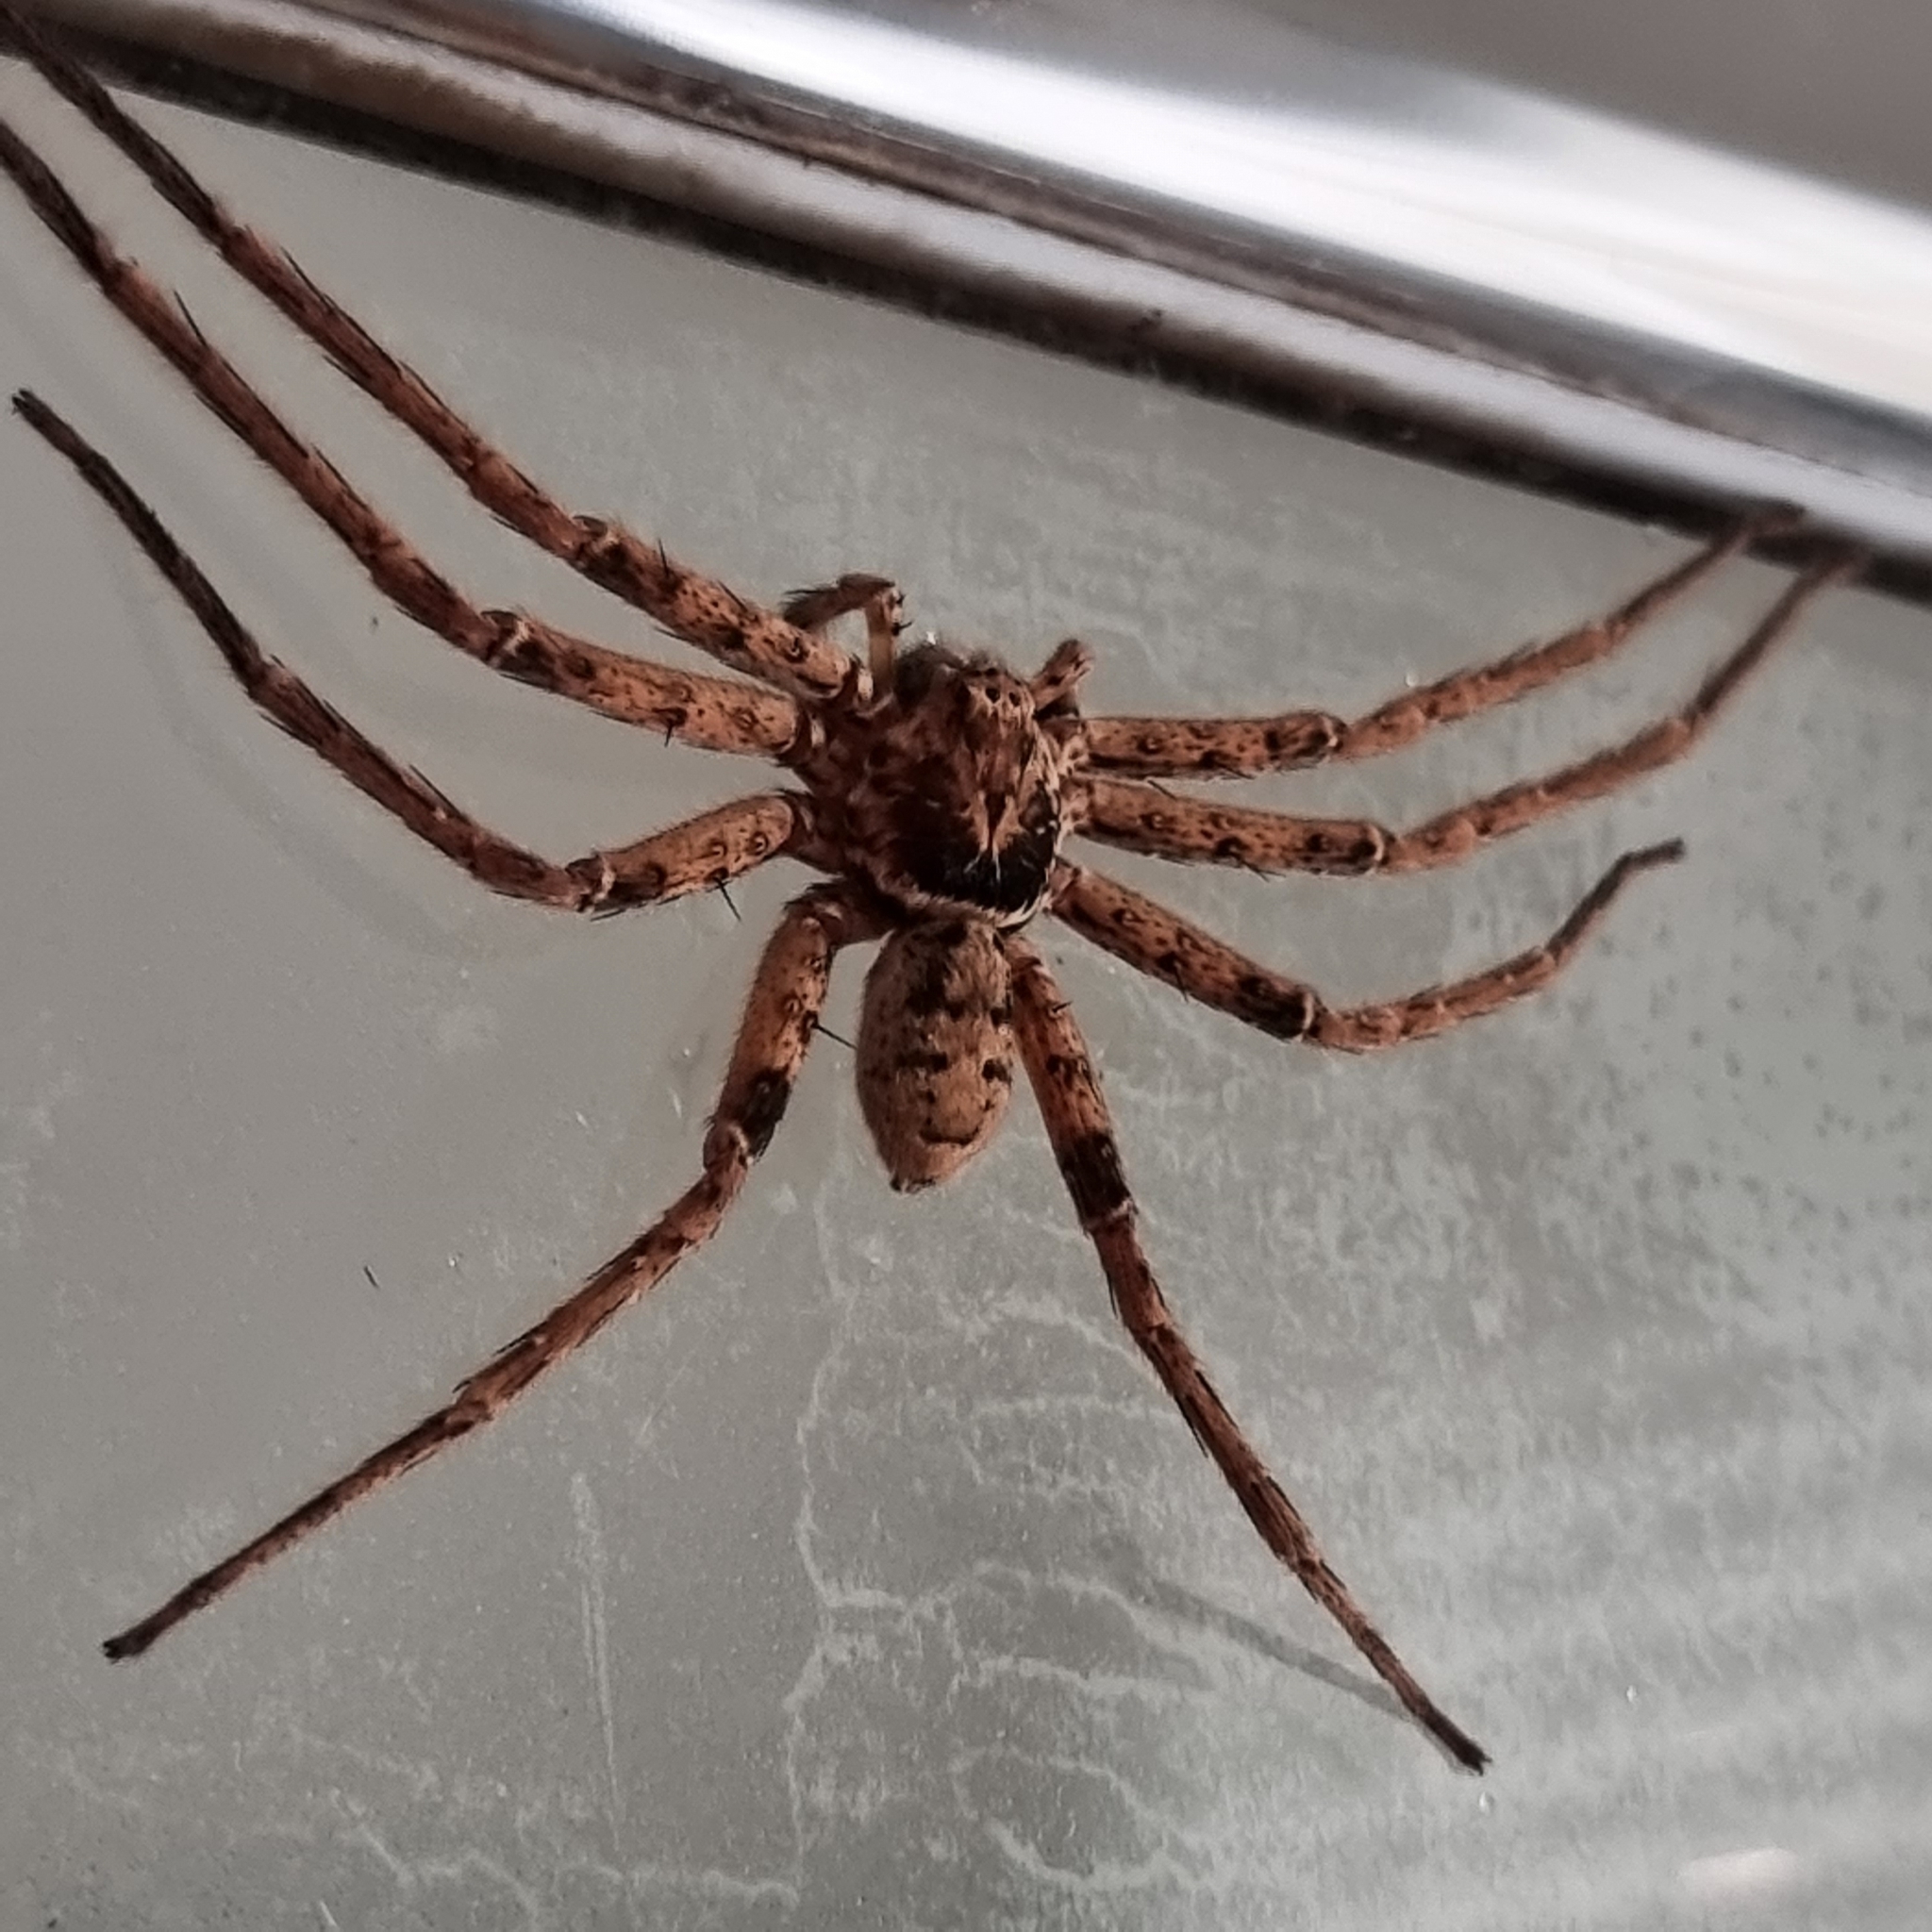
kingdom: Animalia
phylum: Arthropoda
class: Arachnida
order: Araneae
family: Sparassidae
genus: Heteropoda
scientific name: Heteropoda jugulans
